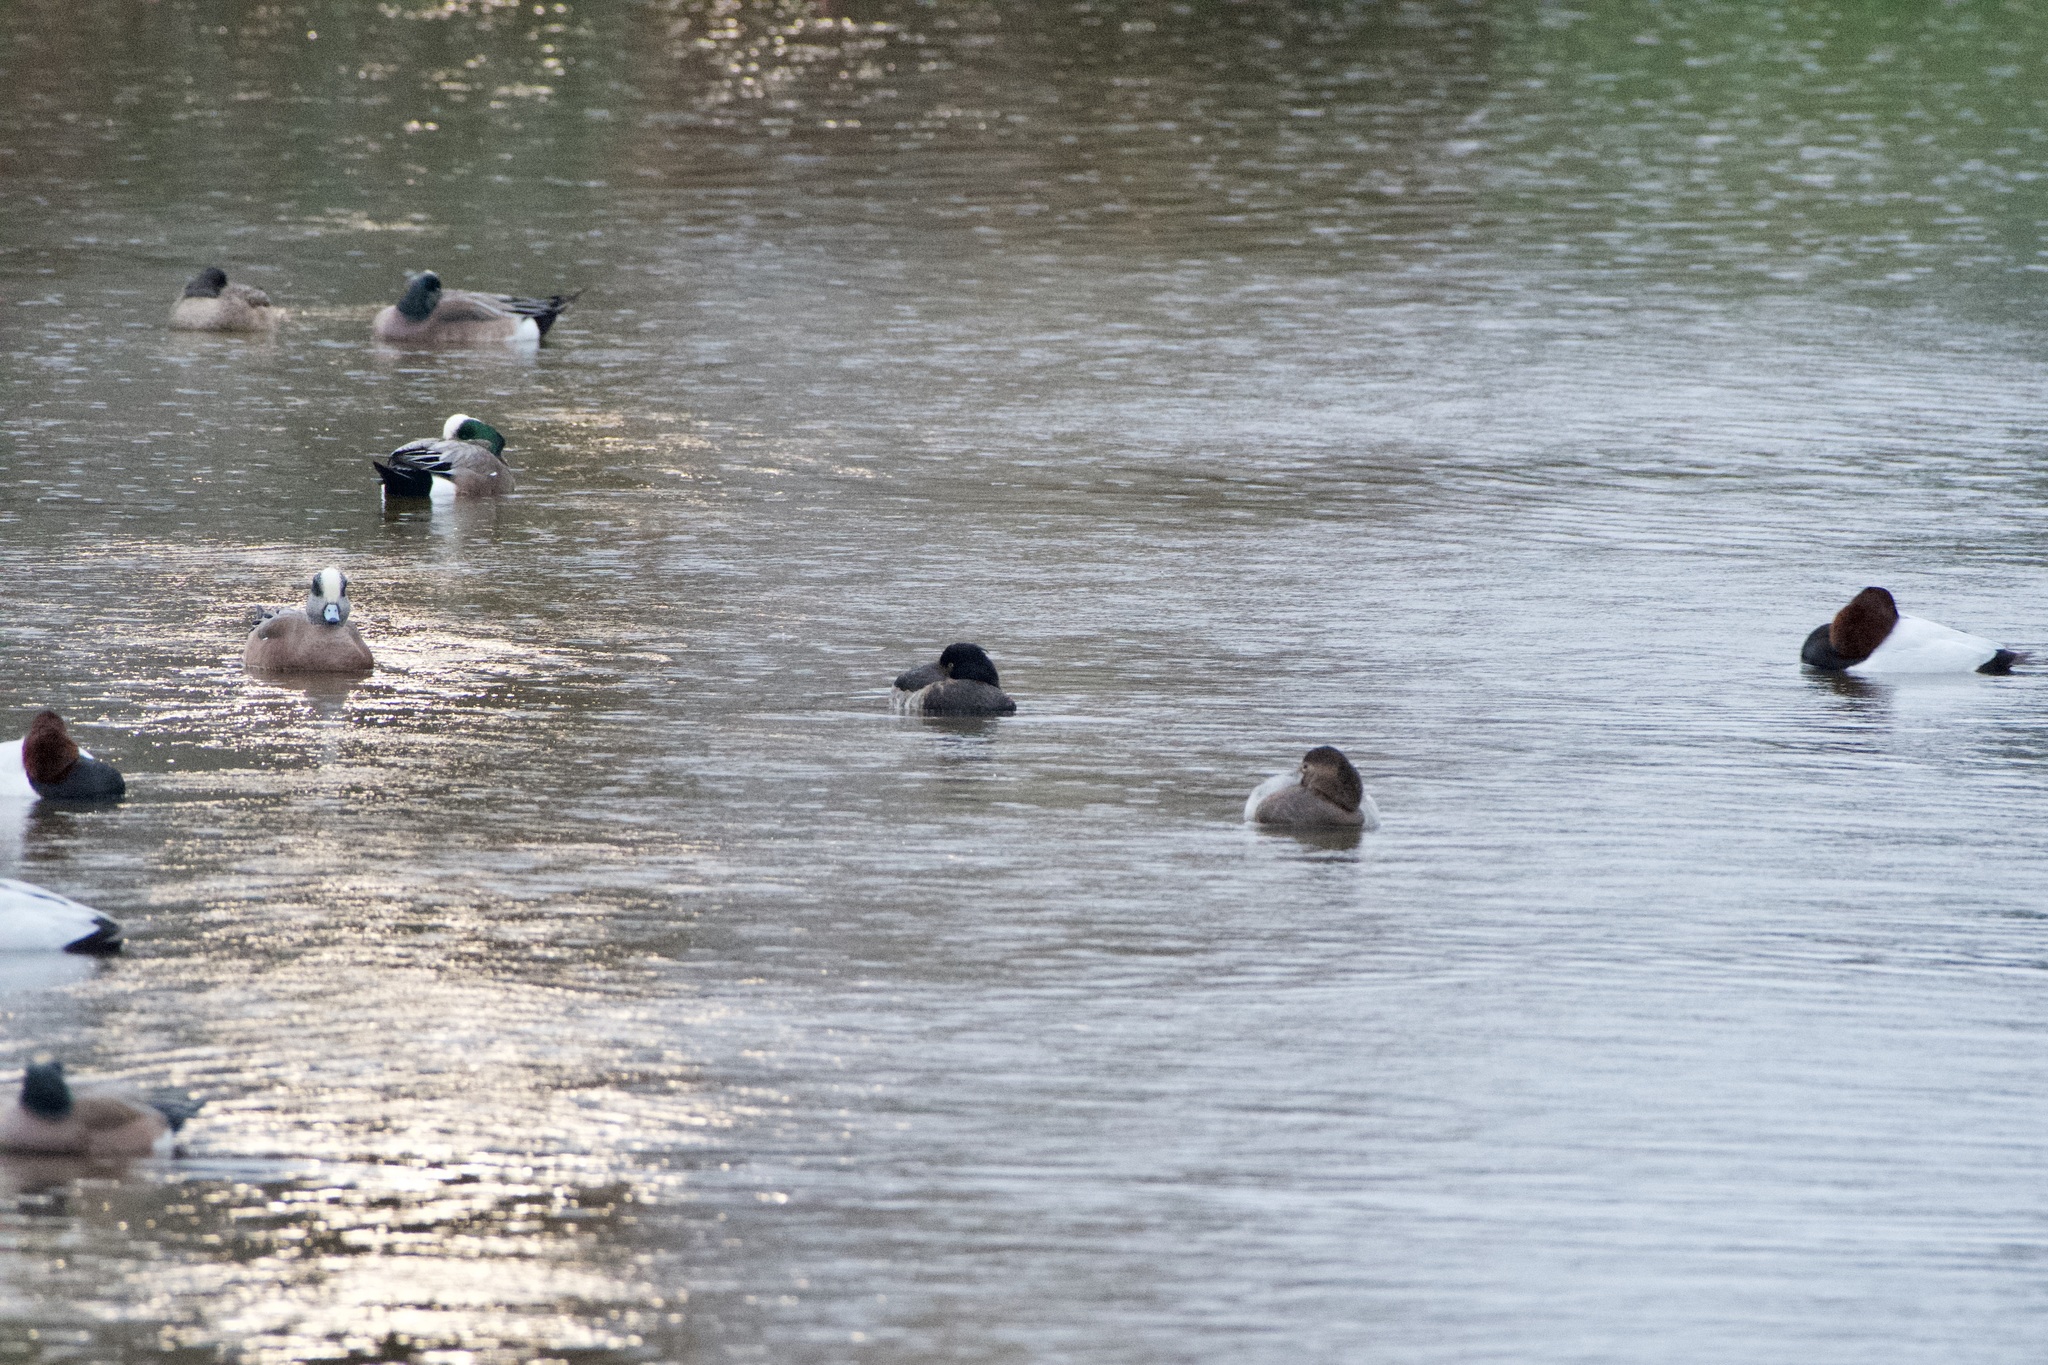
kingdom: Animalia
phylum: Chordata
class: Aves
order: Anseriformes
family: Anatidae
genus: Aythya
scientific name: Aythya fuligula
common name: Tufted duck
